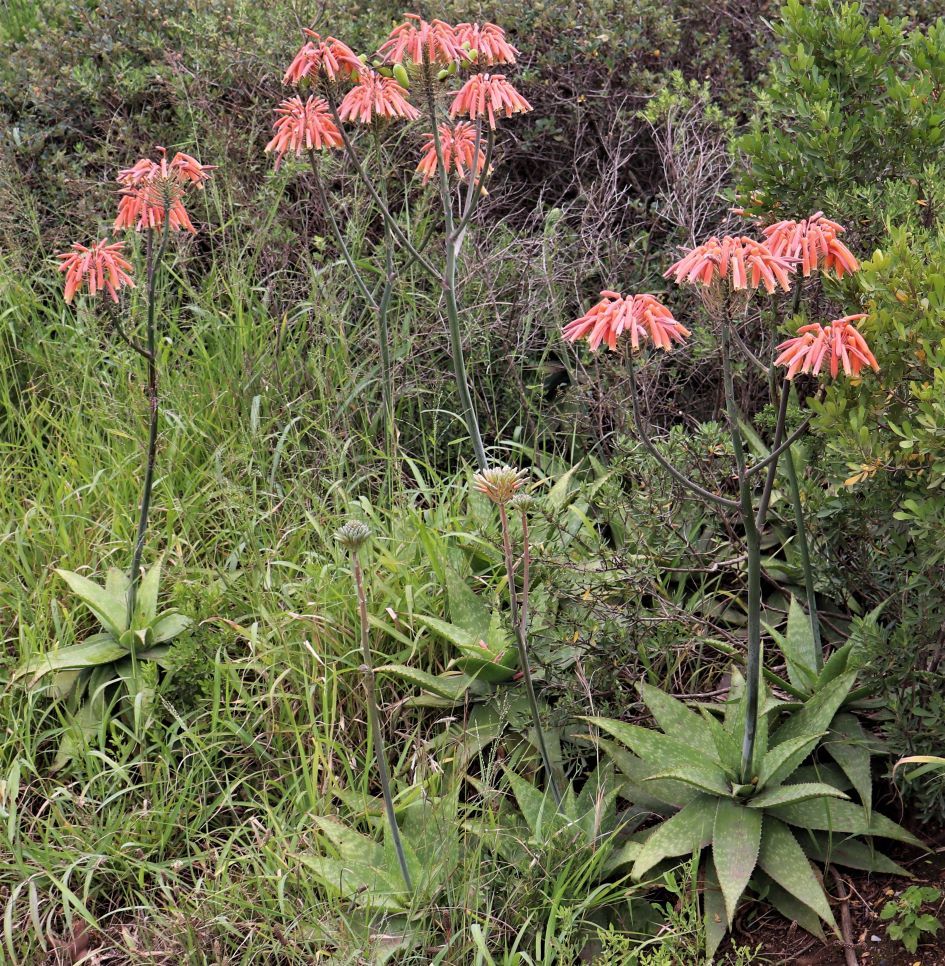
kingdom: Plantae
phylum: Tracheophyta
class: Liliopsida
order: Asparagales
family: Asphodelaceae
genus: Aloe
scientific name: Aloe maculata
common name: Broadleaf aloe
